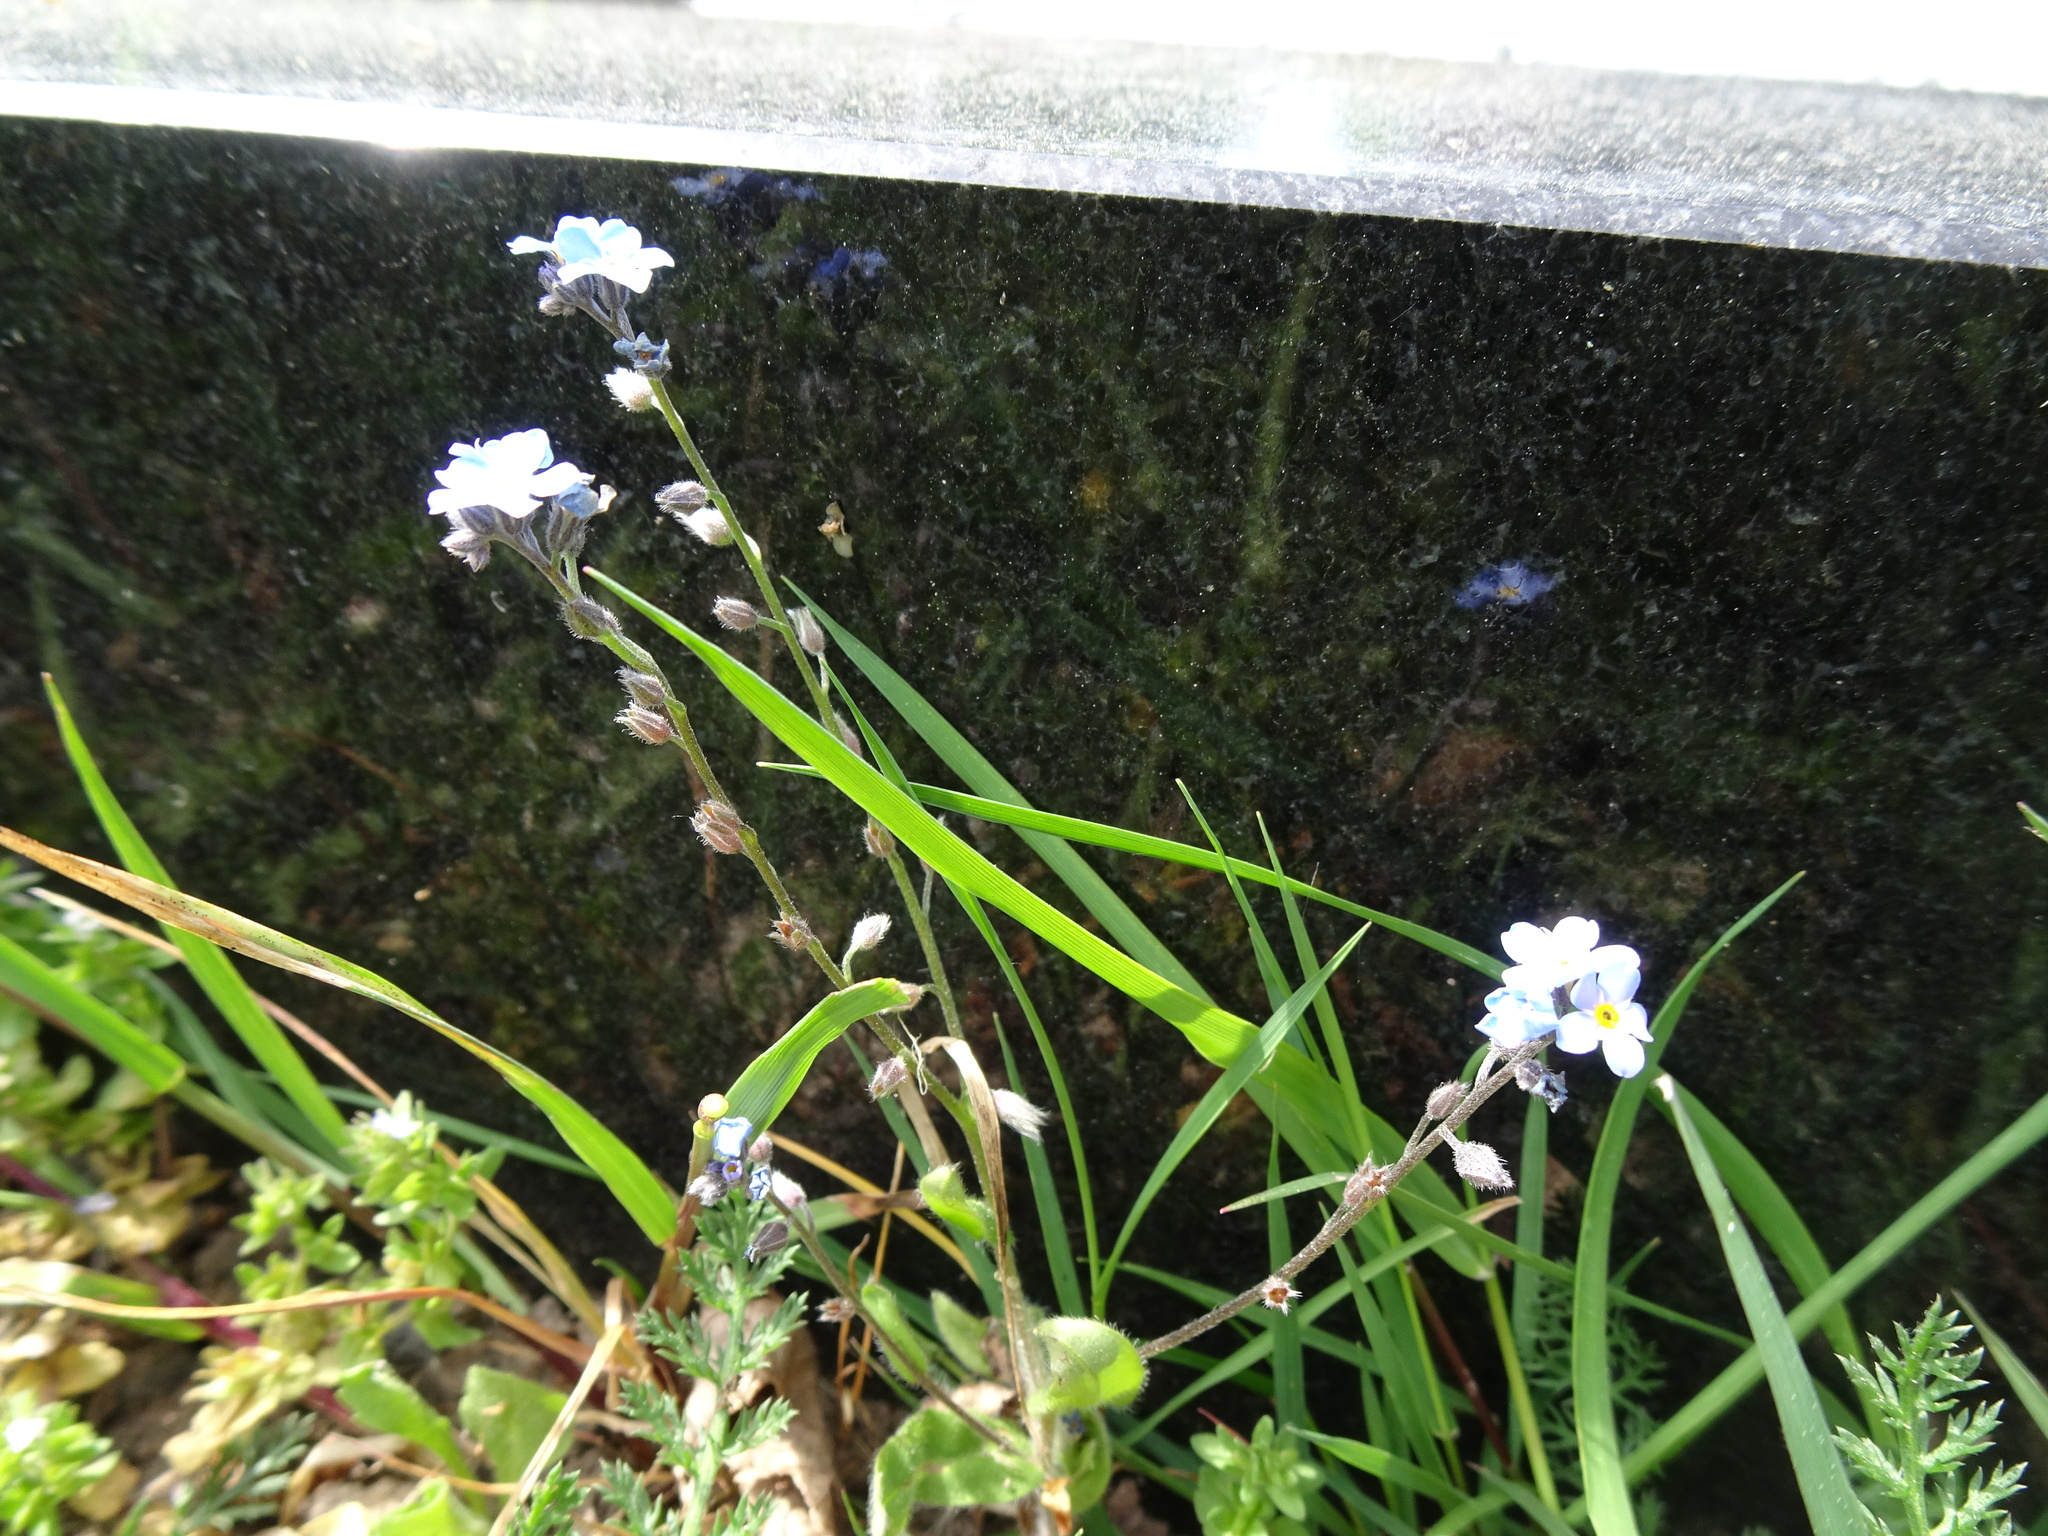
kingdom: Plantae
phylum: Tracheophyta
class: Magnoliopsida
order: Boraginales
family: Boraginaceae
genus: Myosotis
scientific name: Myosotis arvensis
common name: Field forget-me-not
